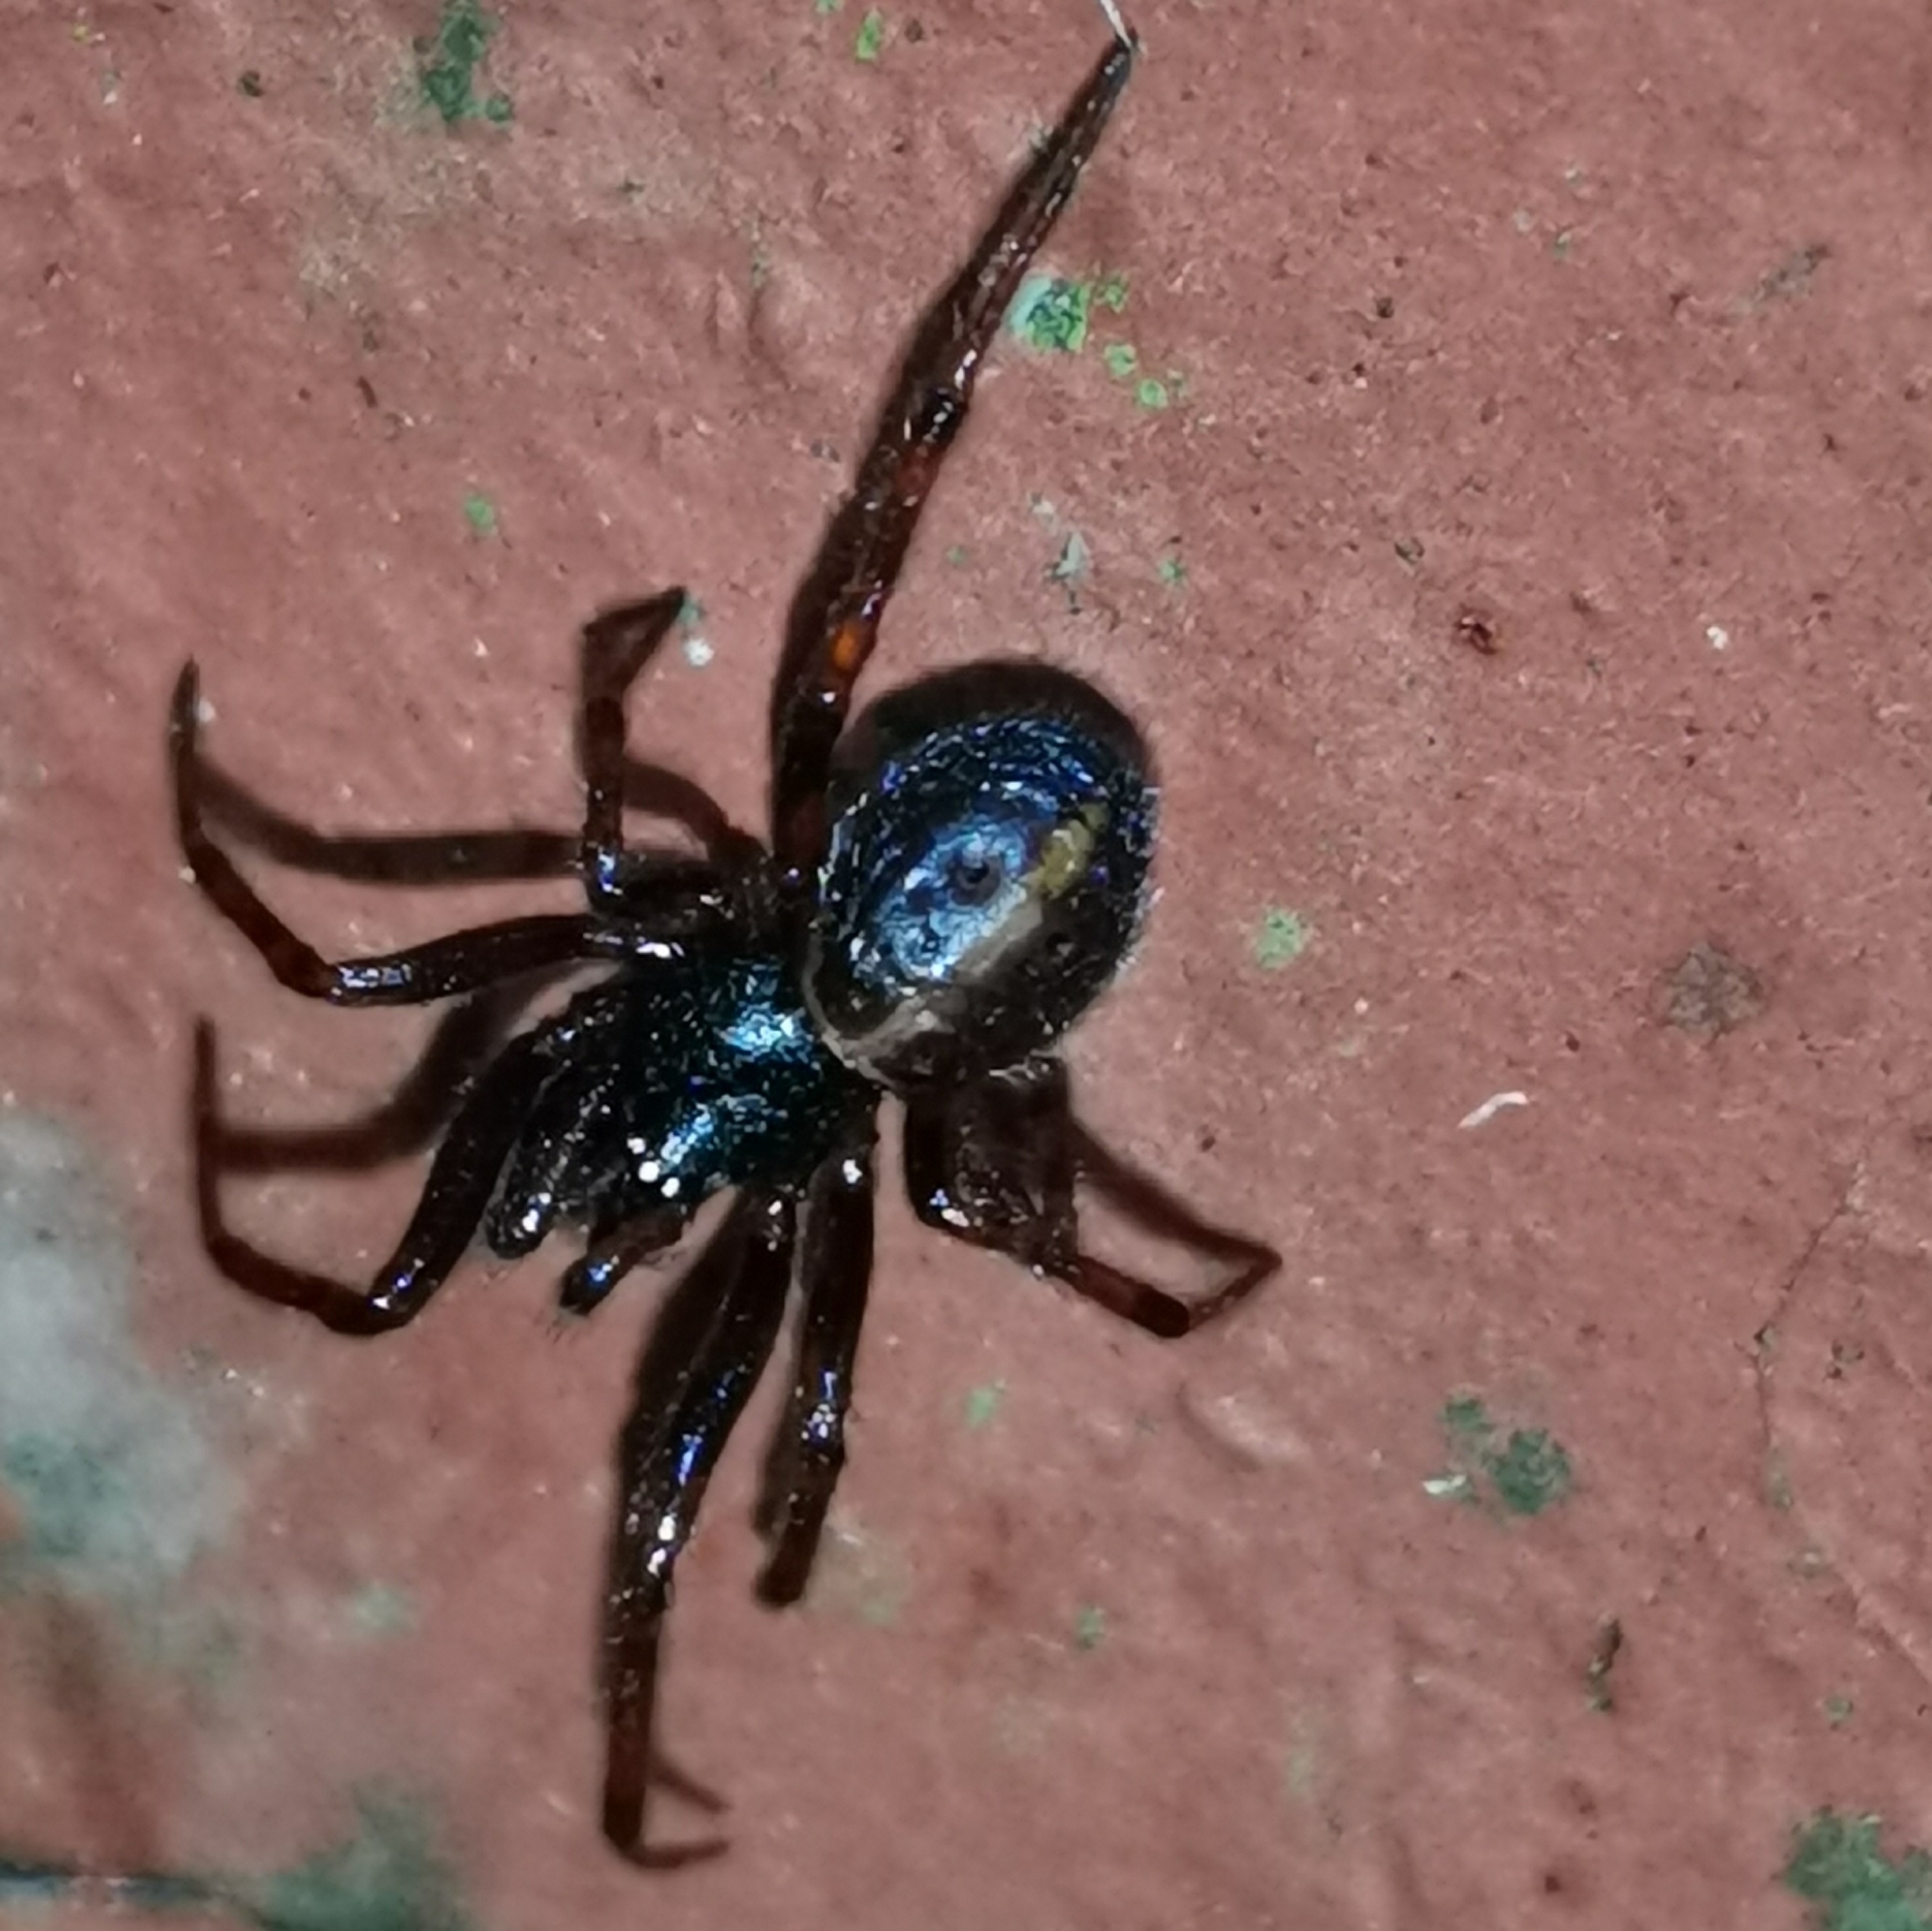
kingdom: Animalia
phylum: Arthropoda
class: Arachnida
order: Araneae
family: Theridiidae
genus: Steatoda
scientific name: Steatoda bipunctata
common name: False widow
